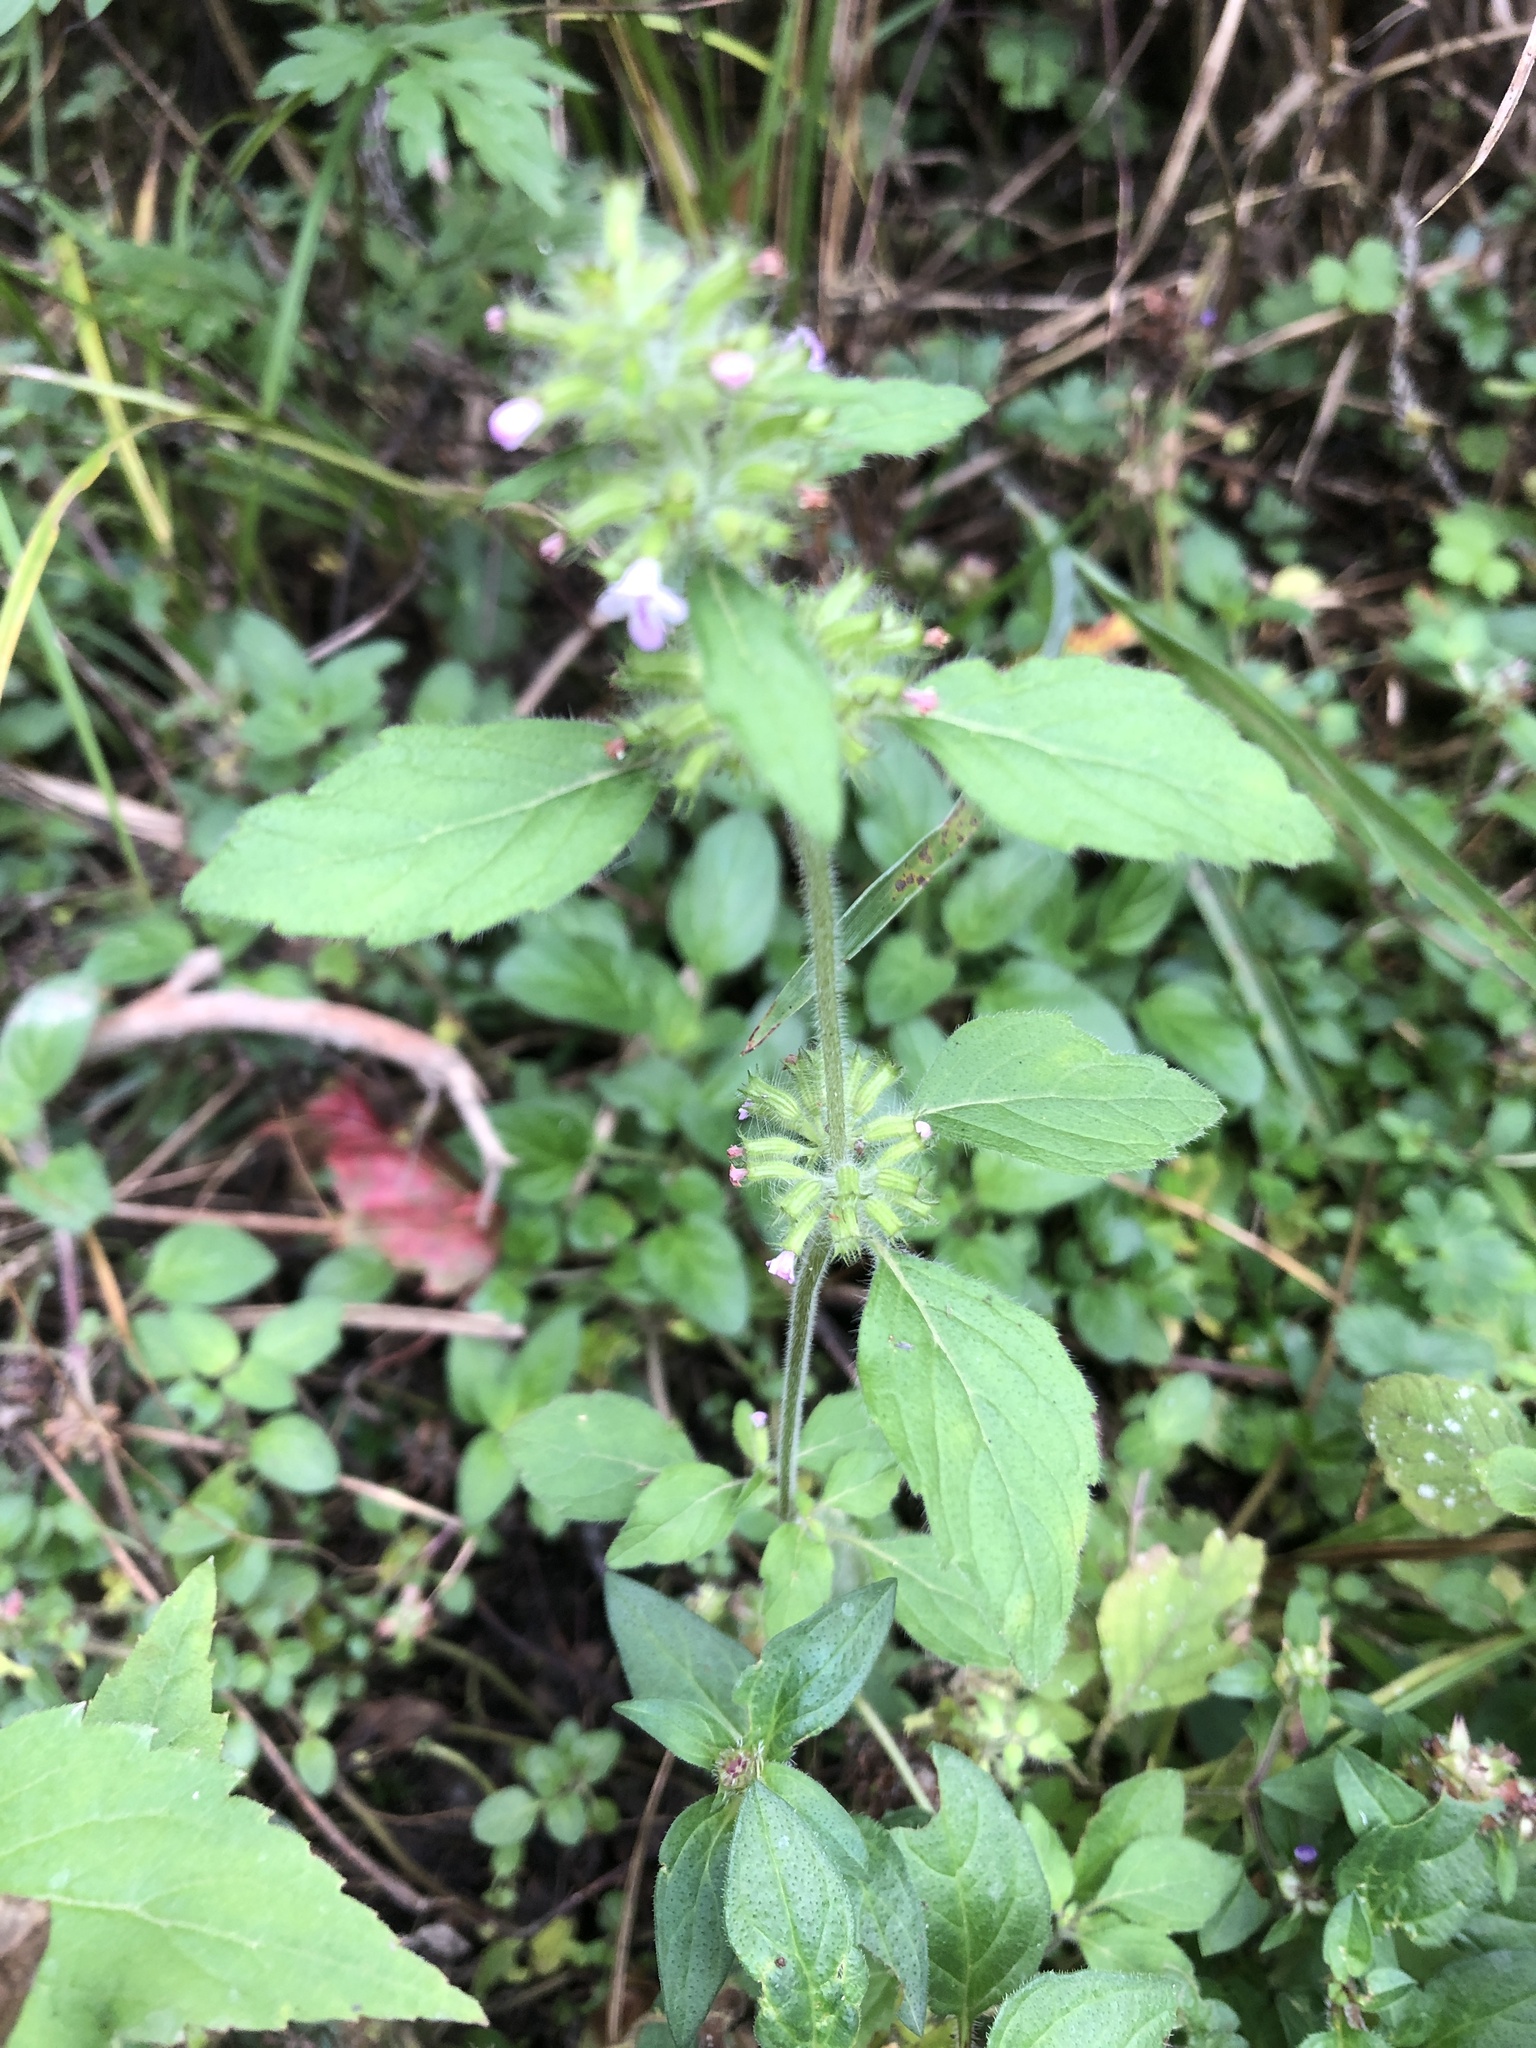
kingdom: Plantae
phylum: Tracheophyta
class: Magnoliopsida
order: Lamiales
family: Lamiaceae
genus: Clinopodium
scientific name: Clinopodium chinense
